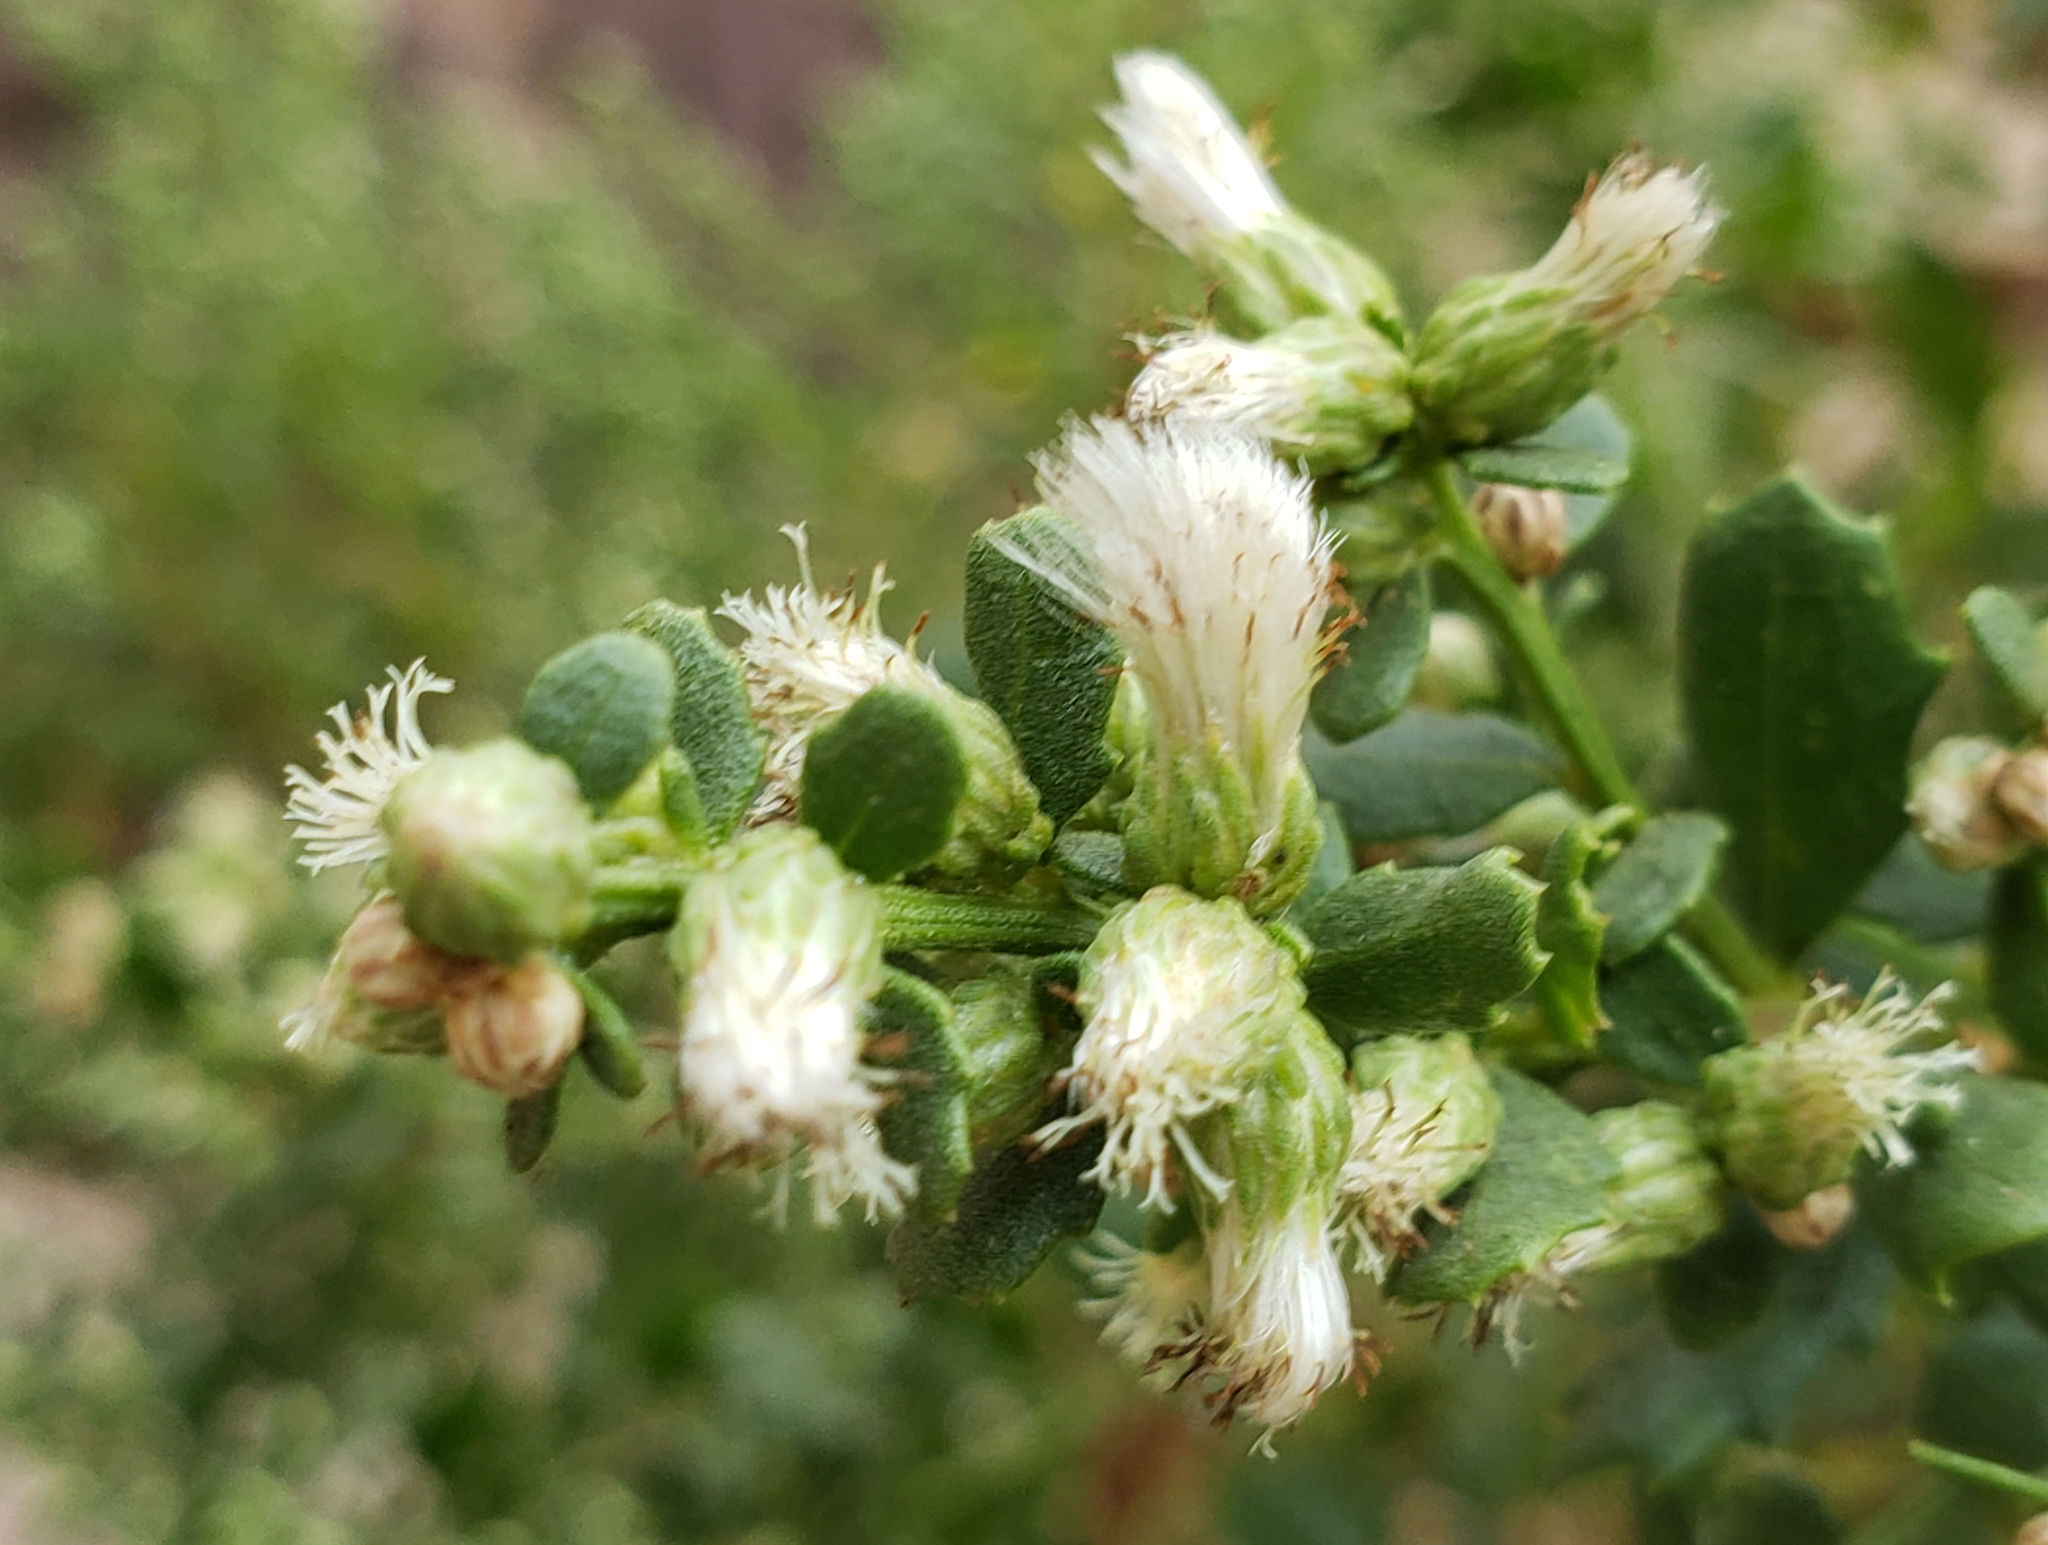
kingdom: Plantae
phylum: Tracheophyta
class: Magnoliopsida
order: Asterales
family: Asteraceae
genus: Baccharis
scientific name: Baccharis pilularis
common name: Coyotebrush
